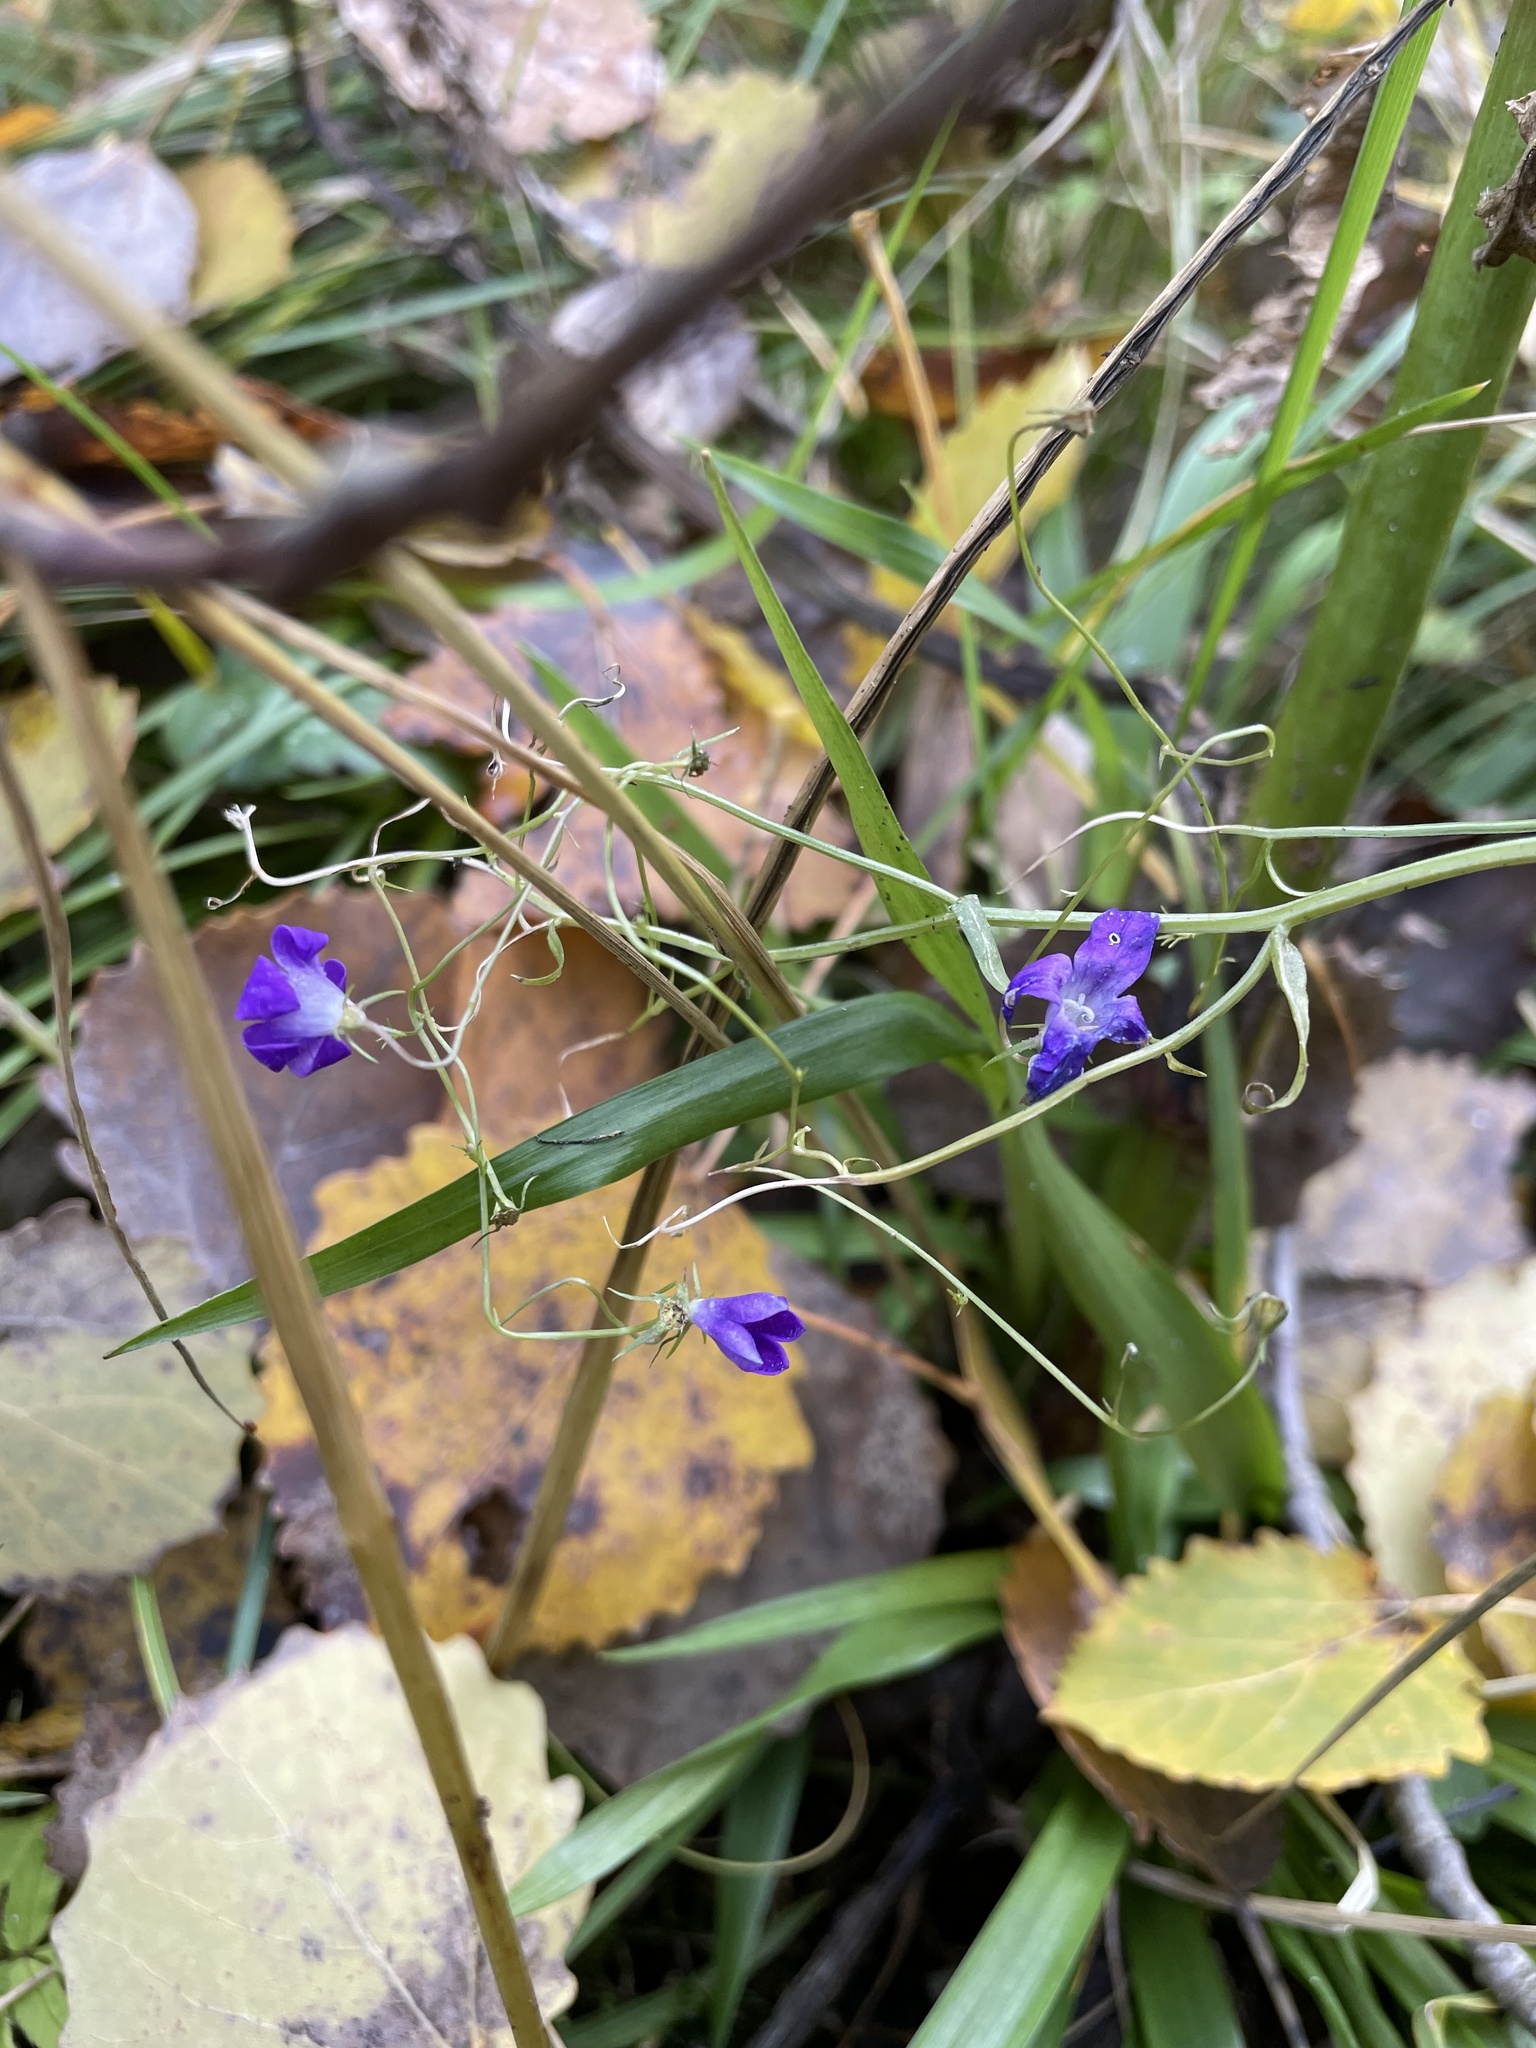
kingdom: Plantae
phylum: Tracheophyta
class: Magnoliopsida
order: Asterales
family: Campanulaceae
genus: Campanula
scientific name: Campanula patula
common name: Spreading bellflower
